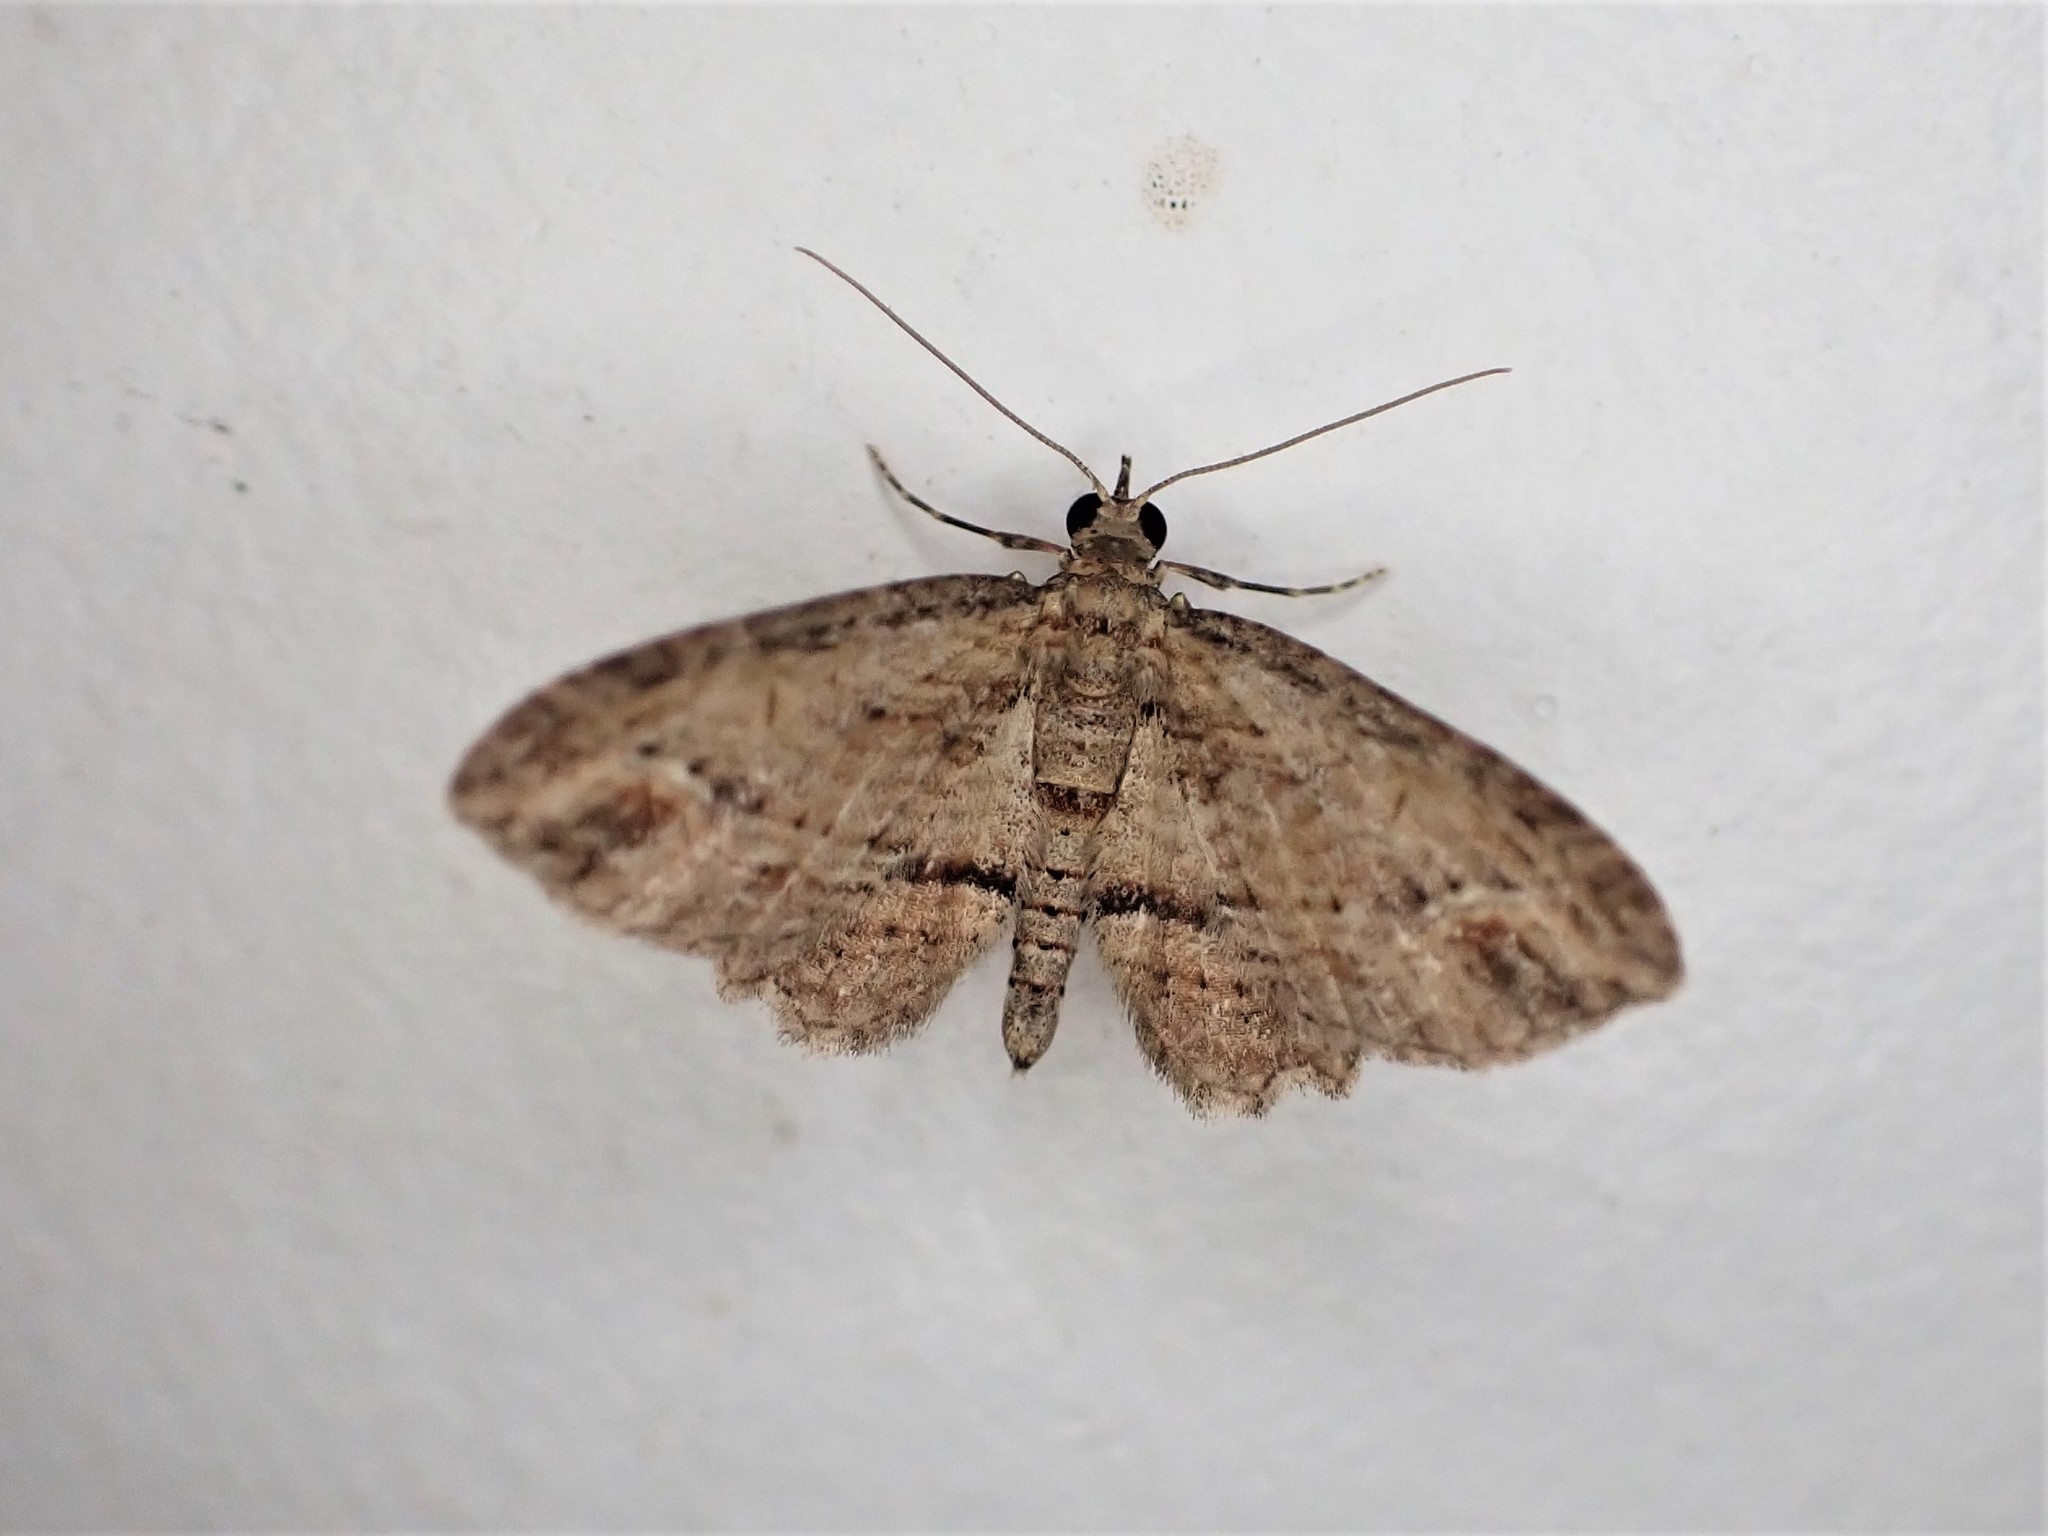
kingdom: Animalia
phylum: Arthropoda
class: Insecta
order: Lepidoptera
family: Geometridae
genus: Chloroclystis
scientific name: Chloroclystis filata
